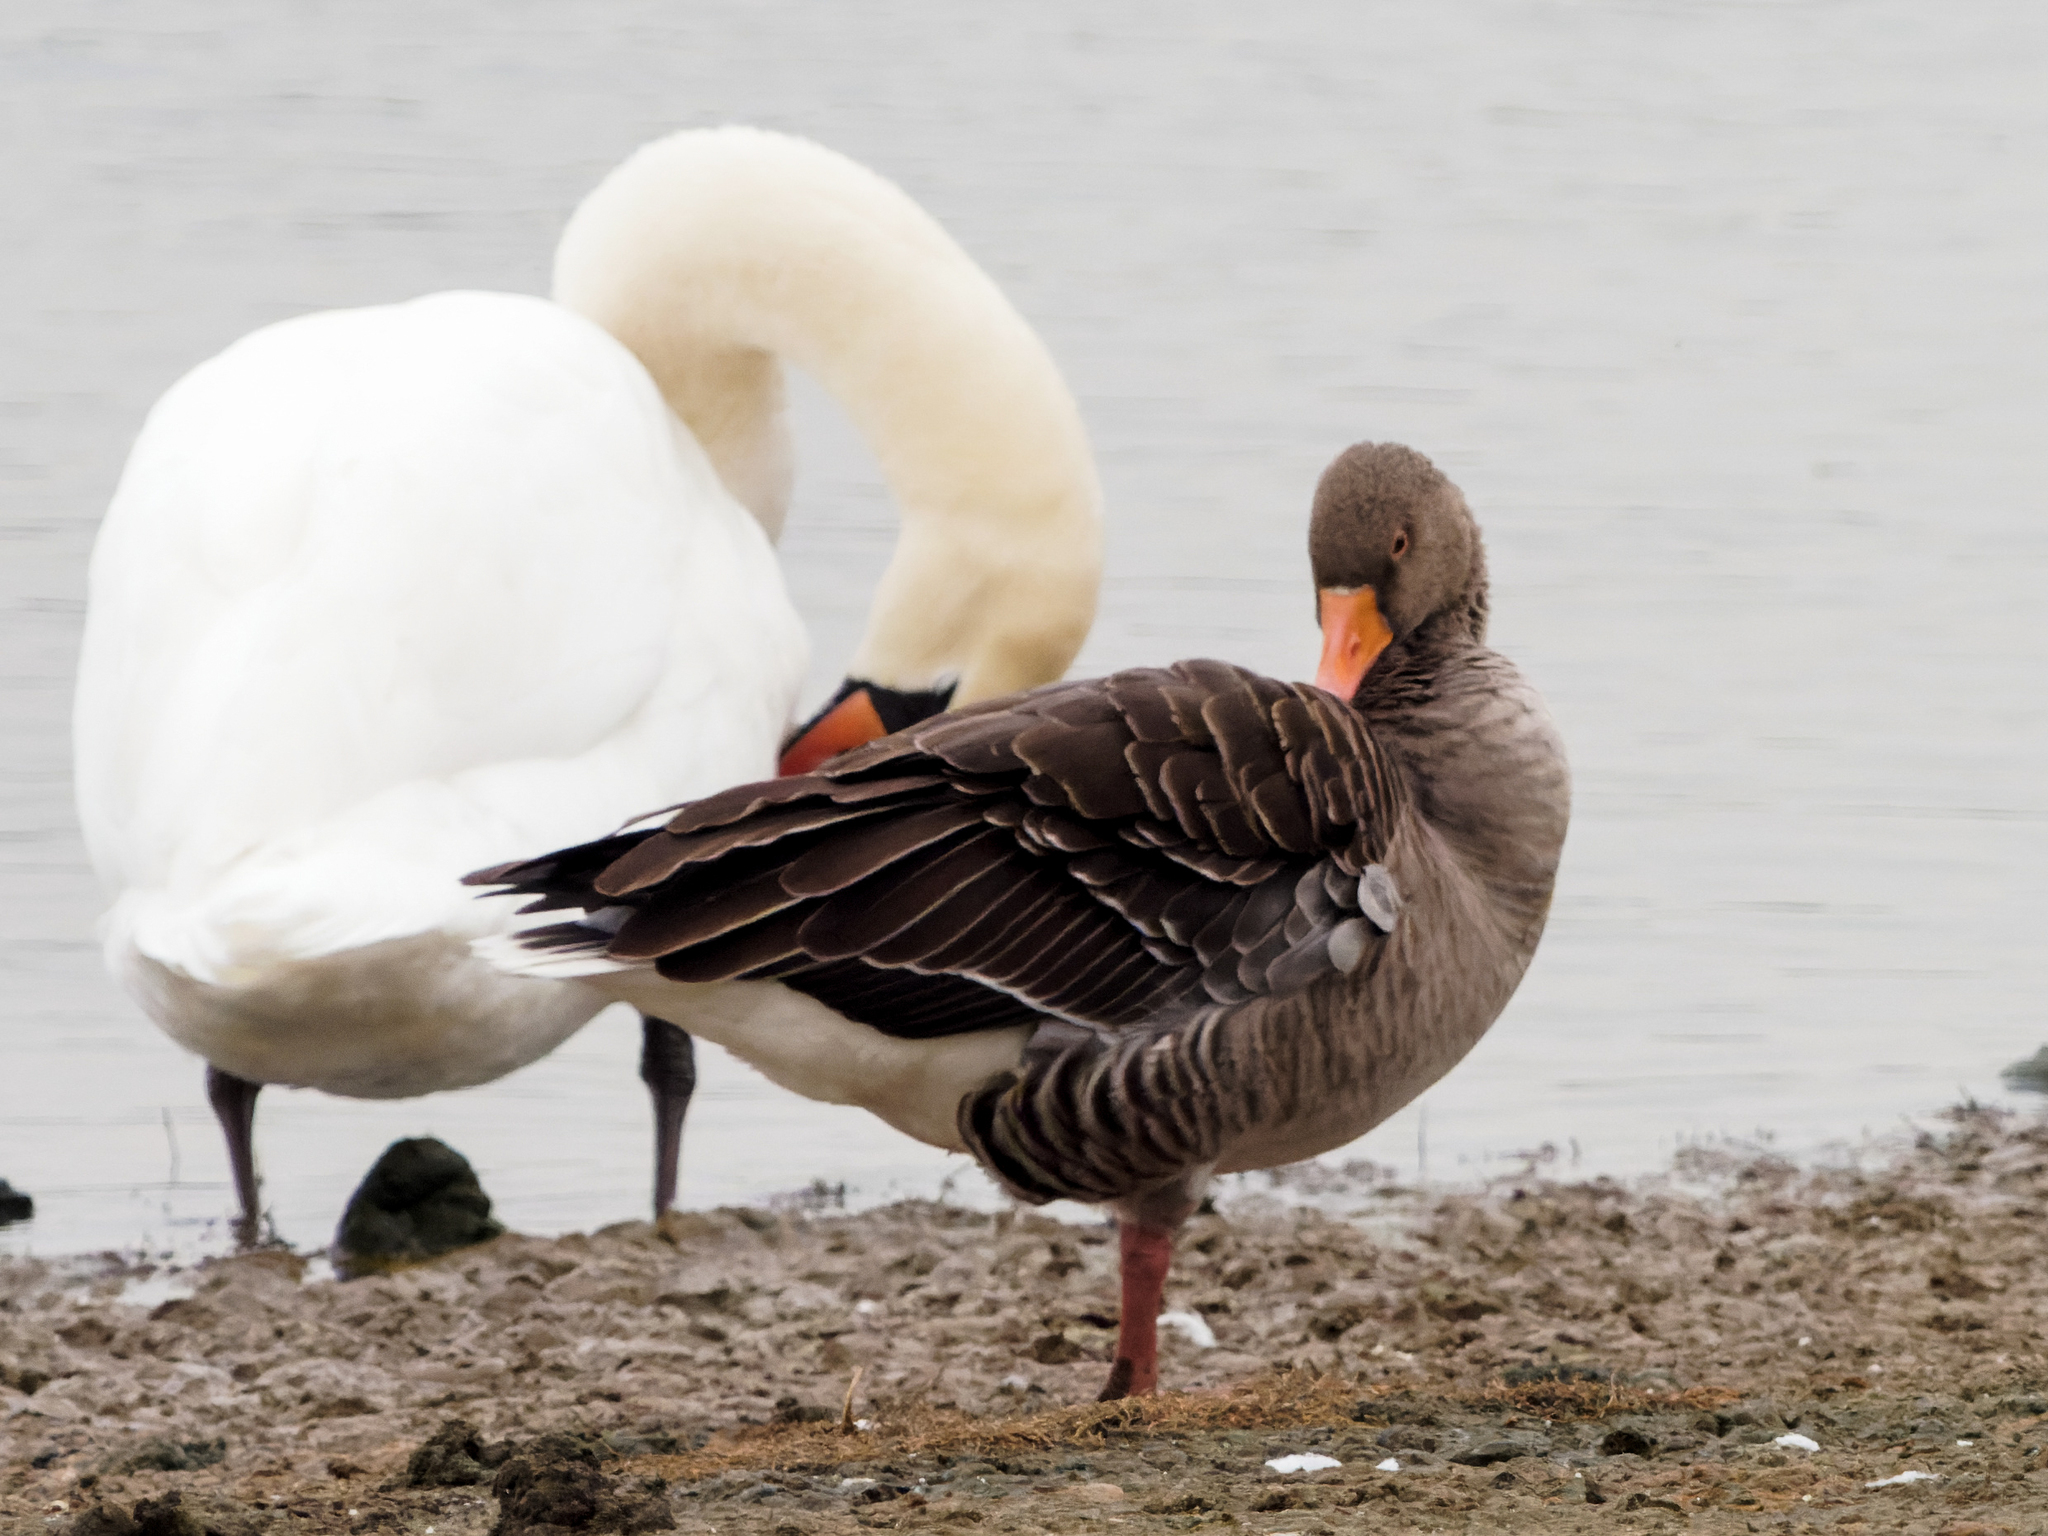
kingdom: Animalia
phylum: Chordata
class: Aves
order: Anseriformes
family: Anatidae
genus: Anser
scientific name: Anser anser
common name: Greylag goose
